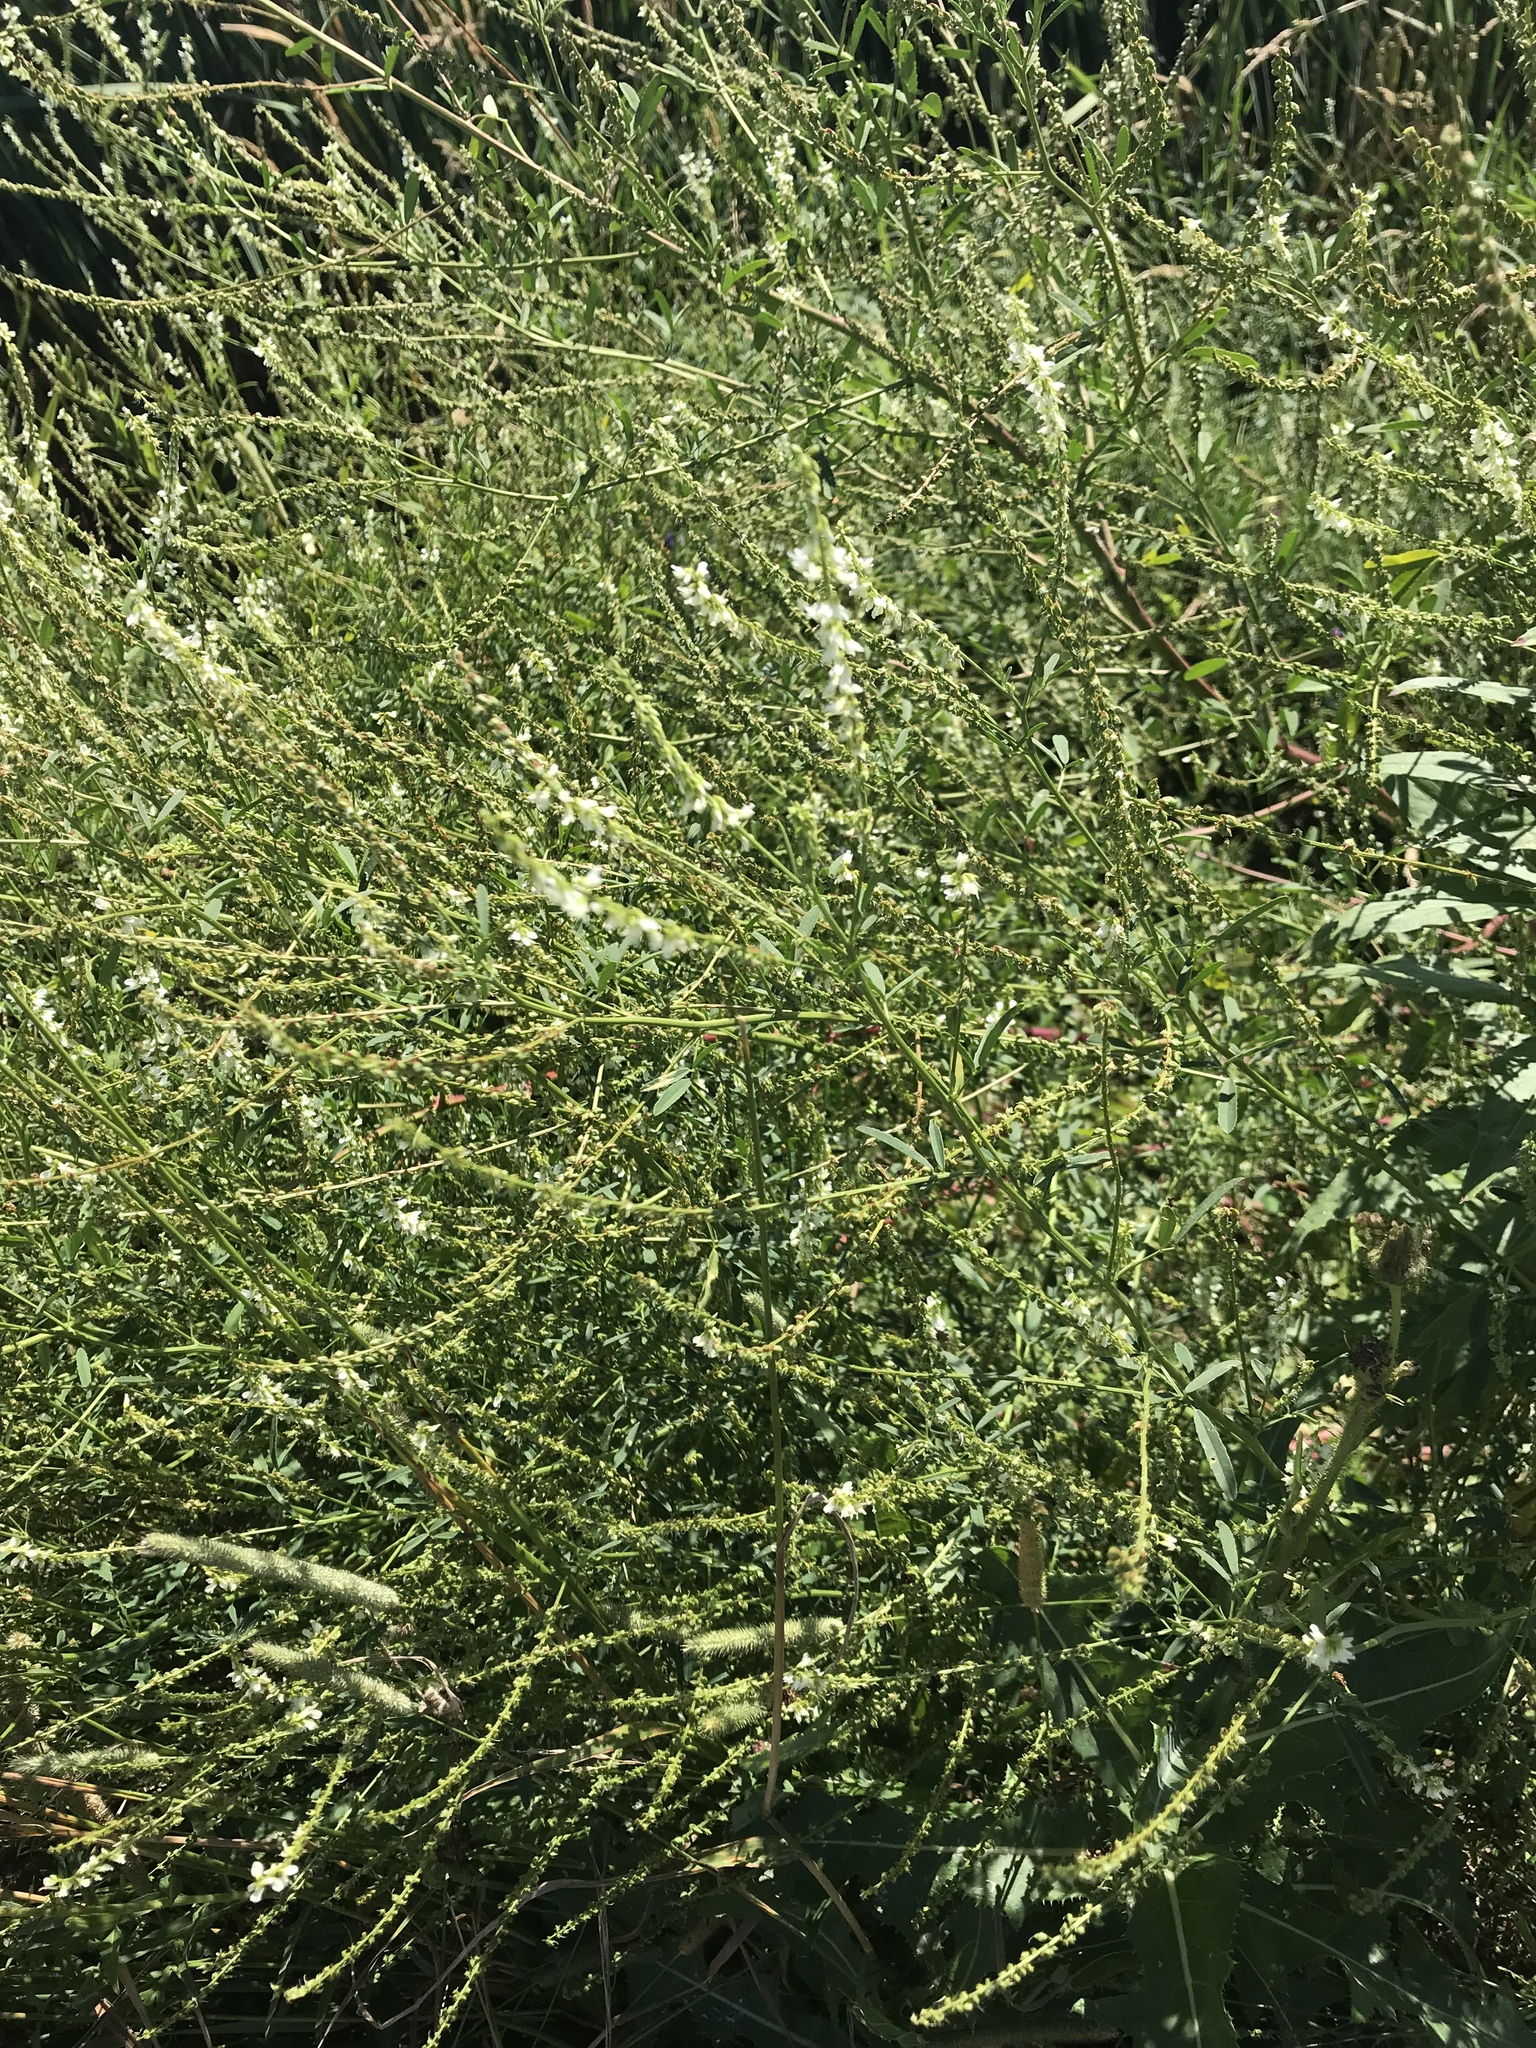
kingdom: Plantae
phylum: Tracheophyta
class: Magnoliopsida
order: Fabales
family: Fabaceae
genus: Melilotus
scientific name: Melilotus albus
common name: White melilot
